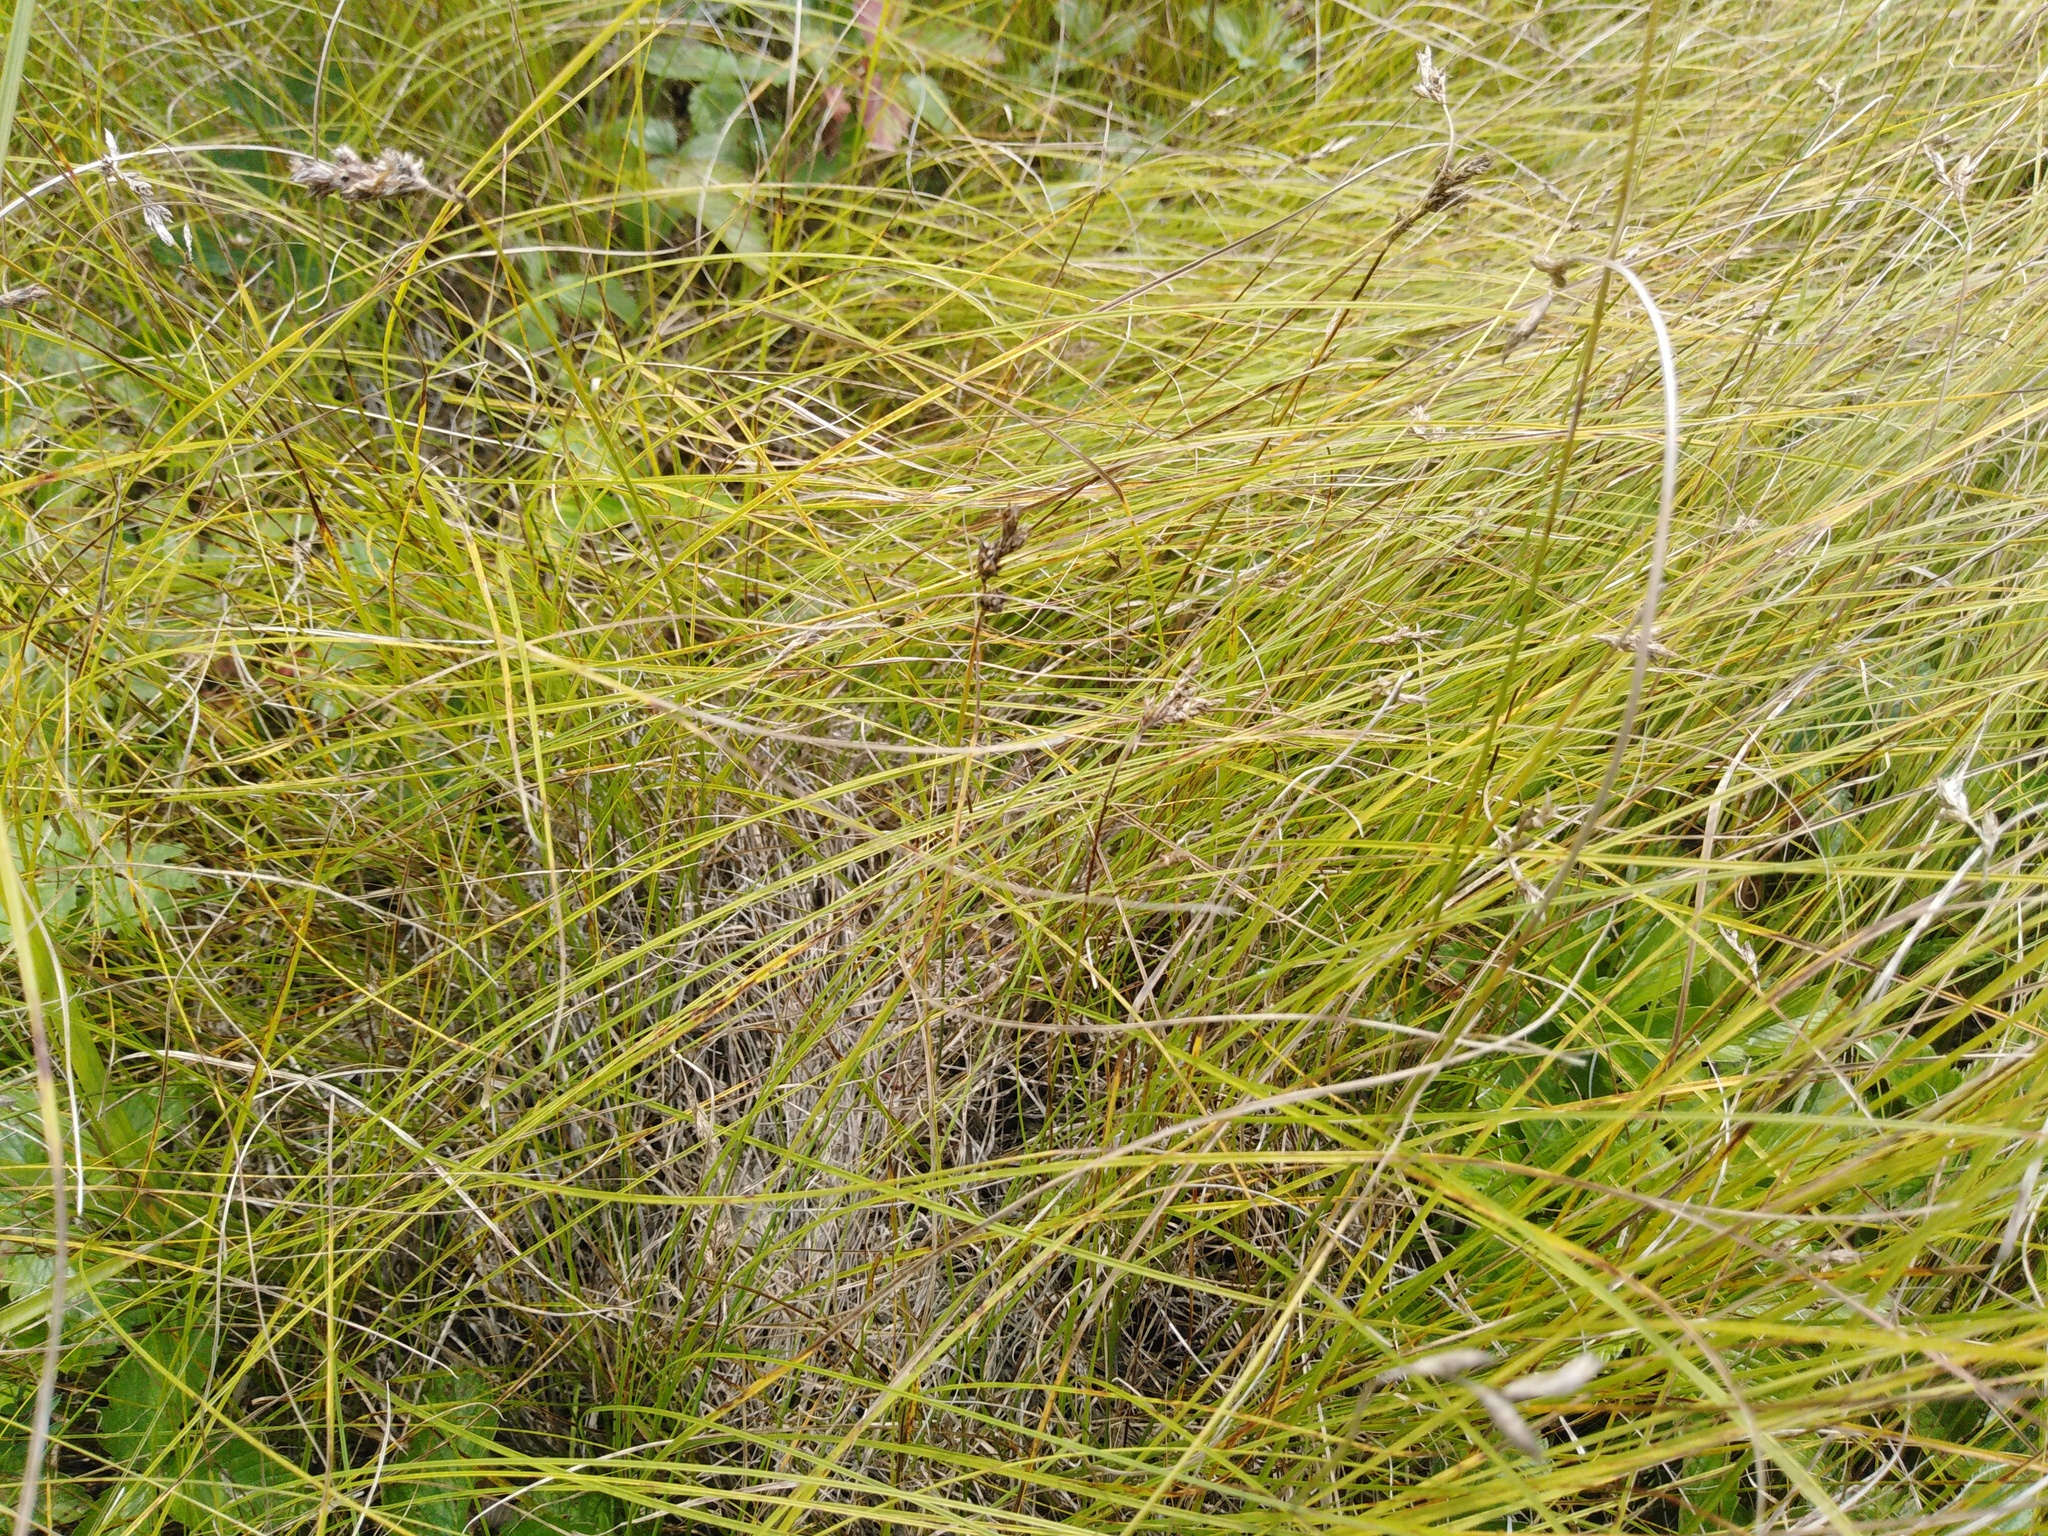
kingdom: Plantae
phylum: Tracheophyta
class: Liliopsida
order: Poales
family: Cyperaceae
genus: Carex
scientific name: Carex praecox
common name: Early sedge
